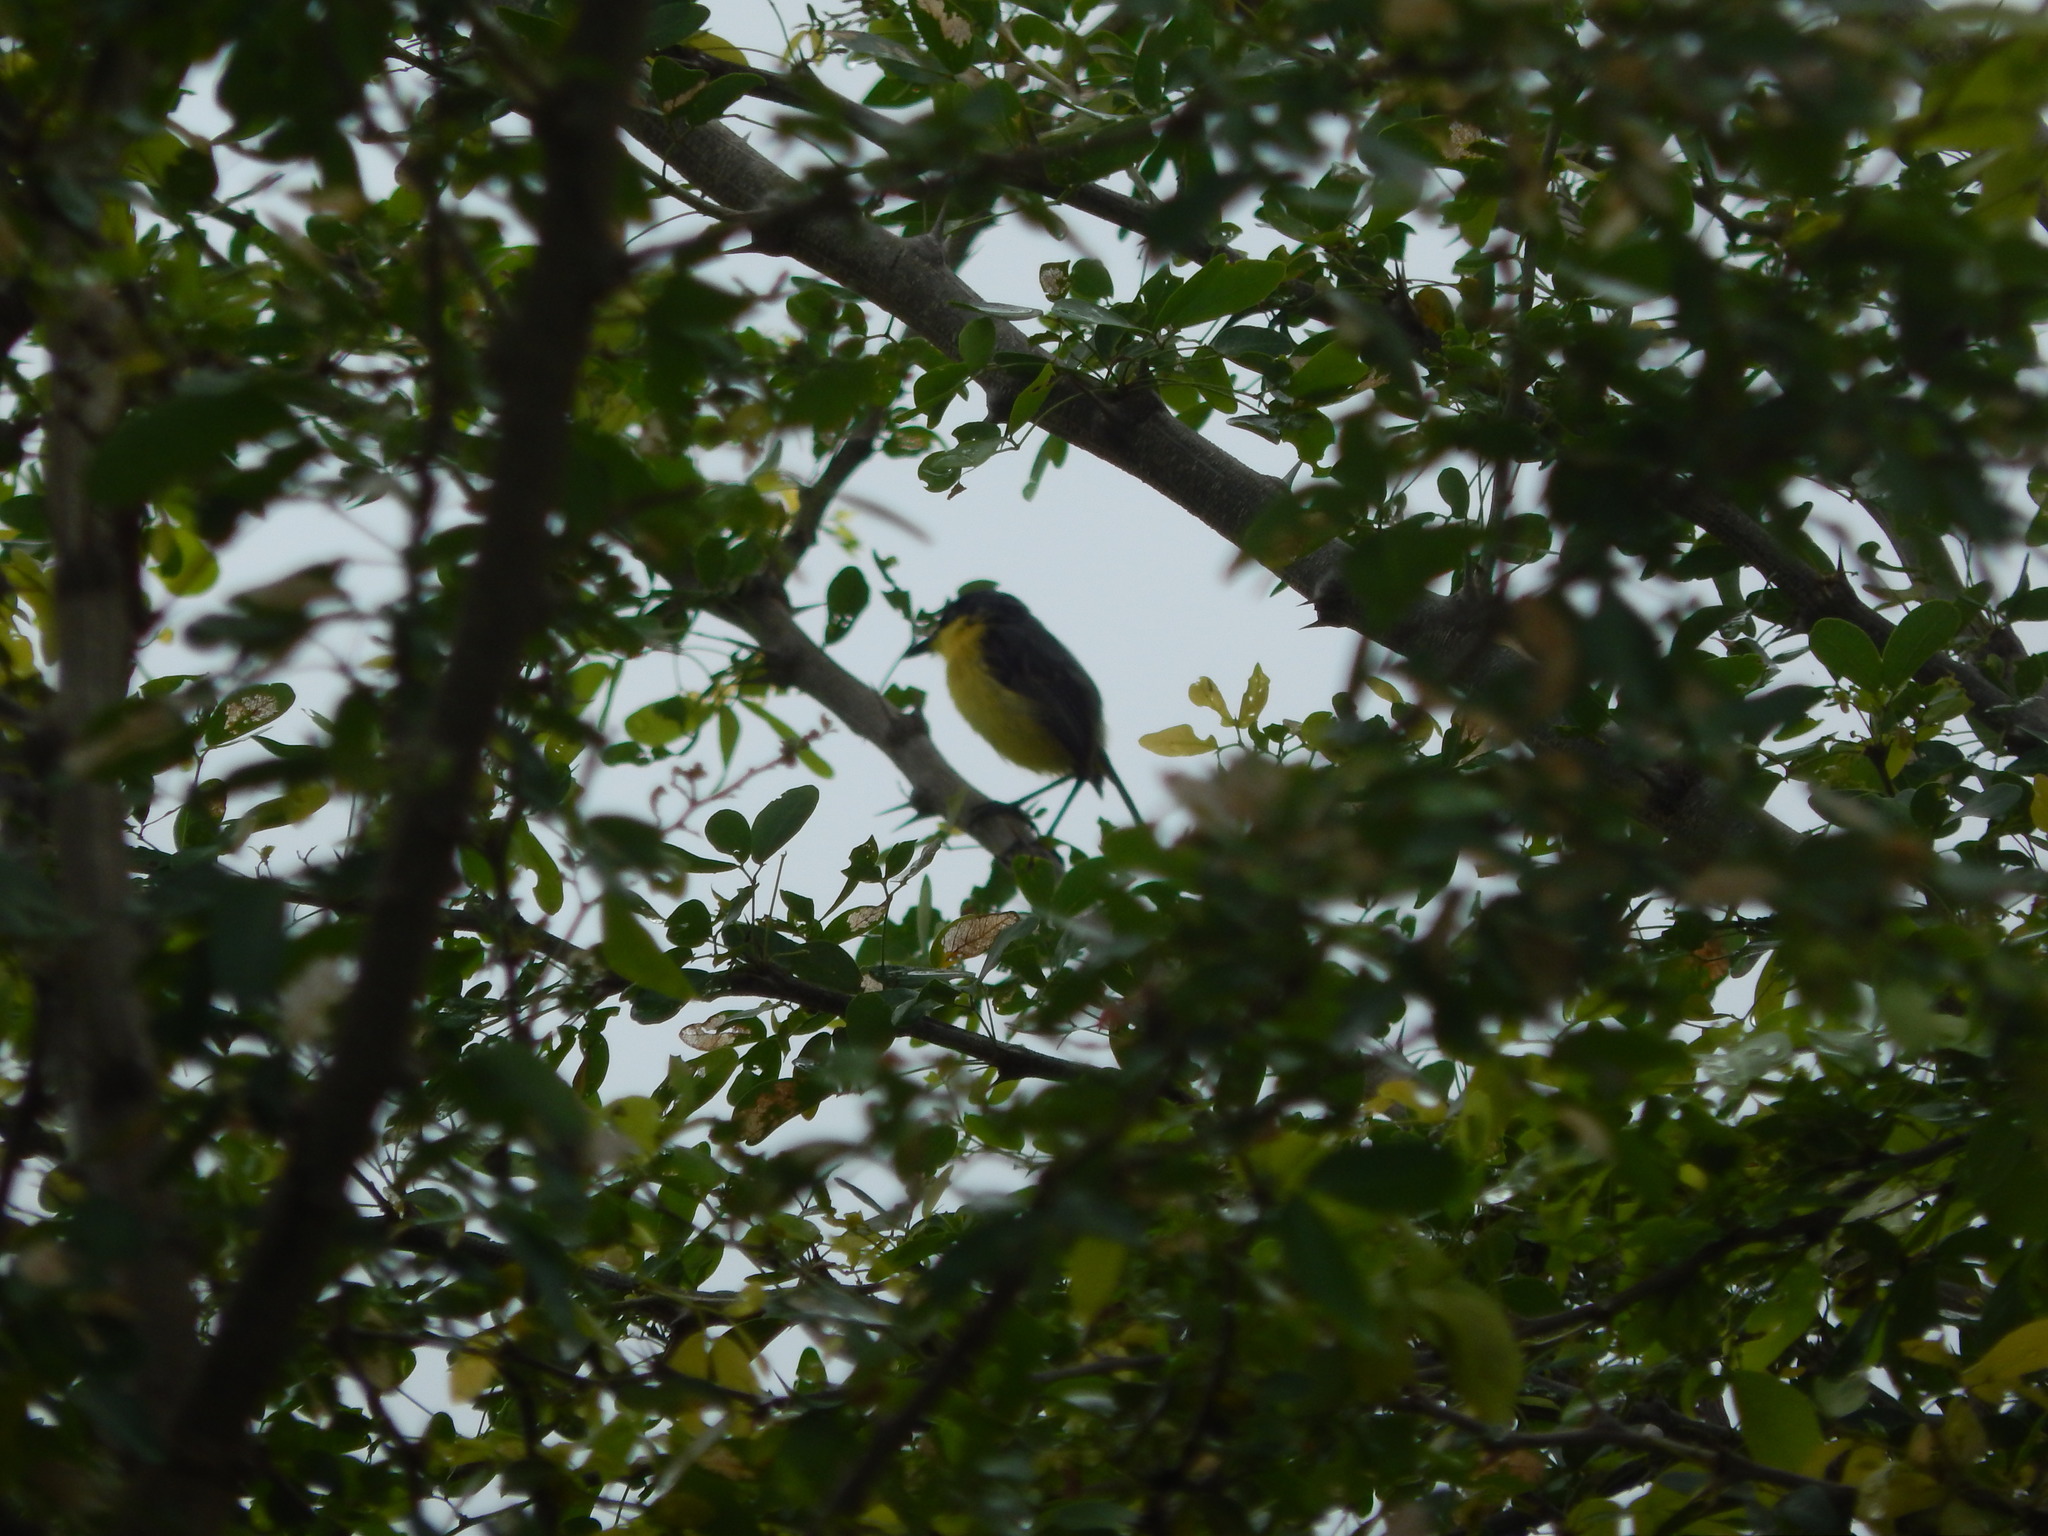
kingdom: Animalia
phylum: Chordata
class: Aves
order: Passeriformes
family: Tyrannidae
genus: Todirostrum
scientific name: Todirostrum cinereum
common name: Common tody-flycatcher
